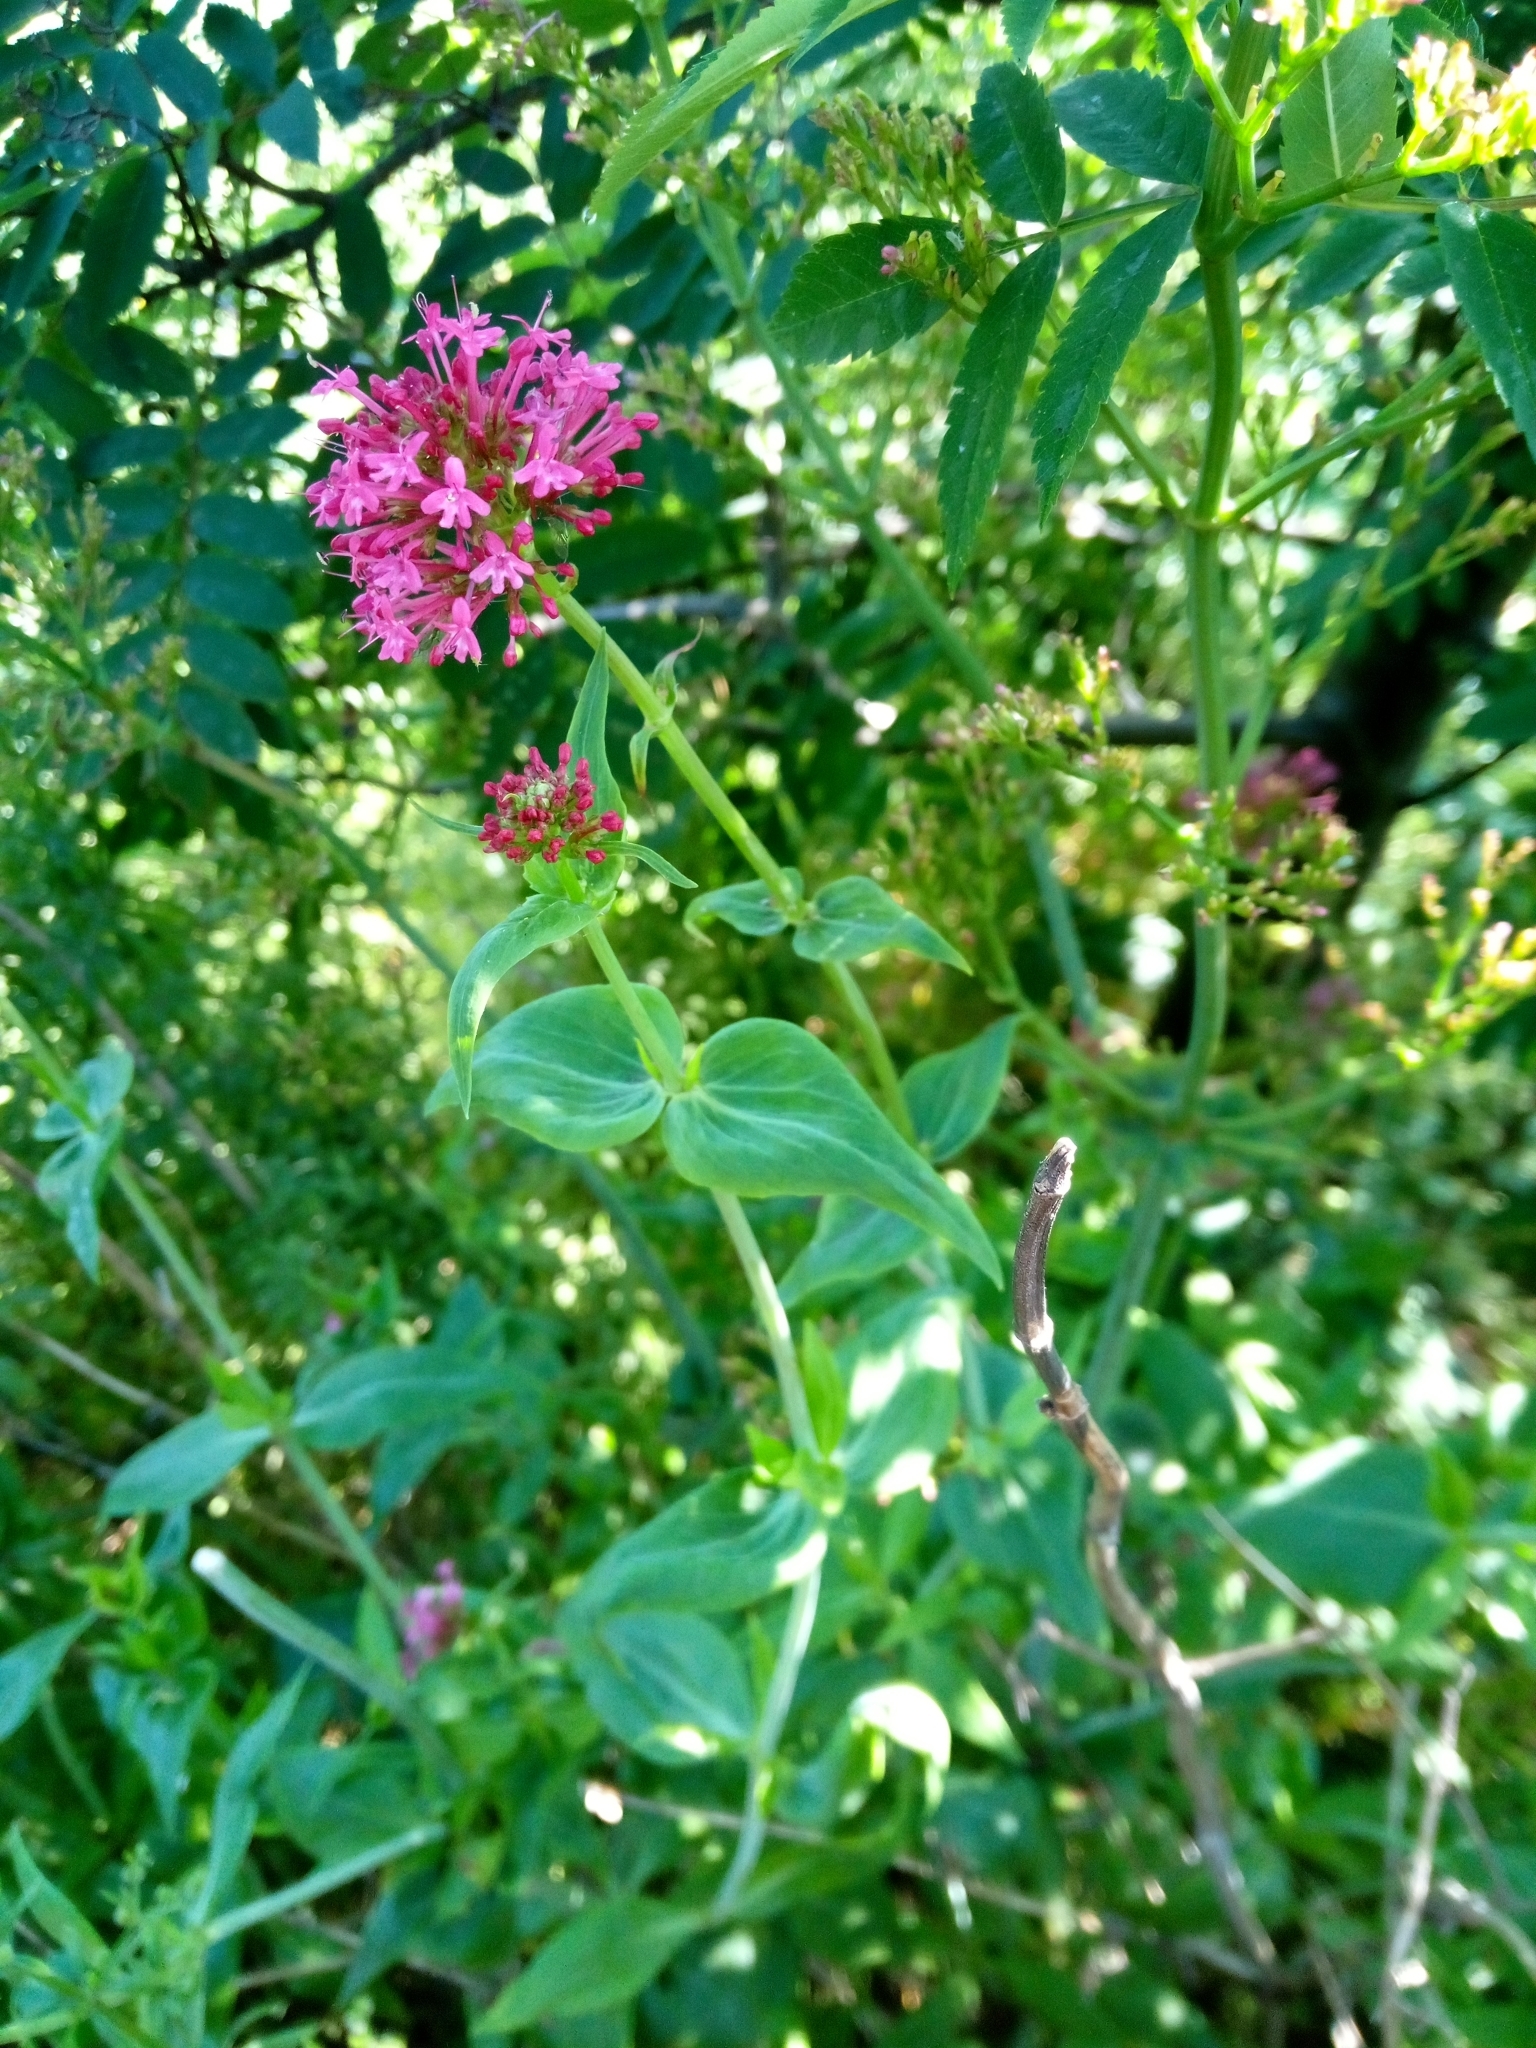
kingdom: Plantae
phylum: Tracheophyta
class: Magnoliopsida
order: Dipsacales
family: Caprifoliaceae
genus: Centranthus
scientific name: Centranthus ruber
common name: Red valerian
